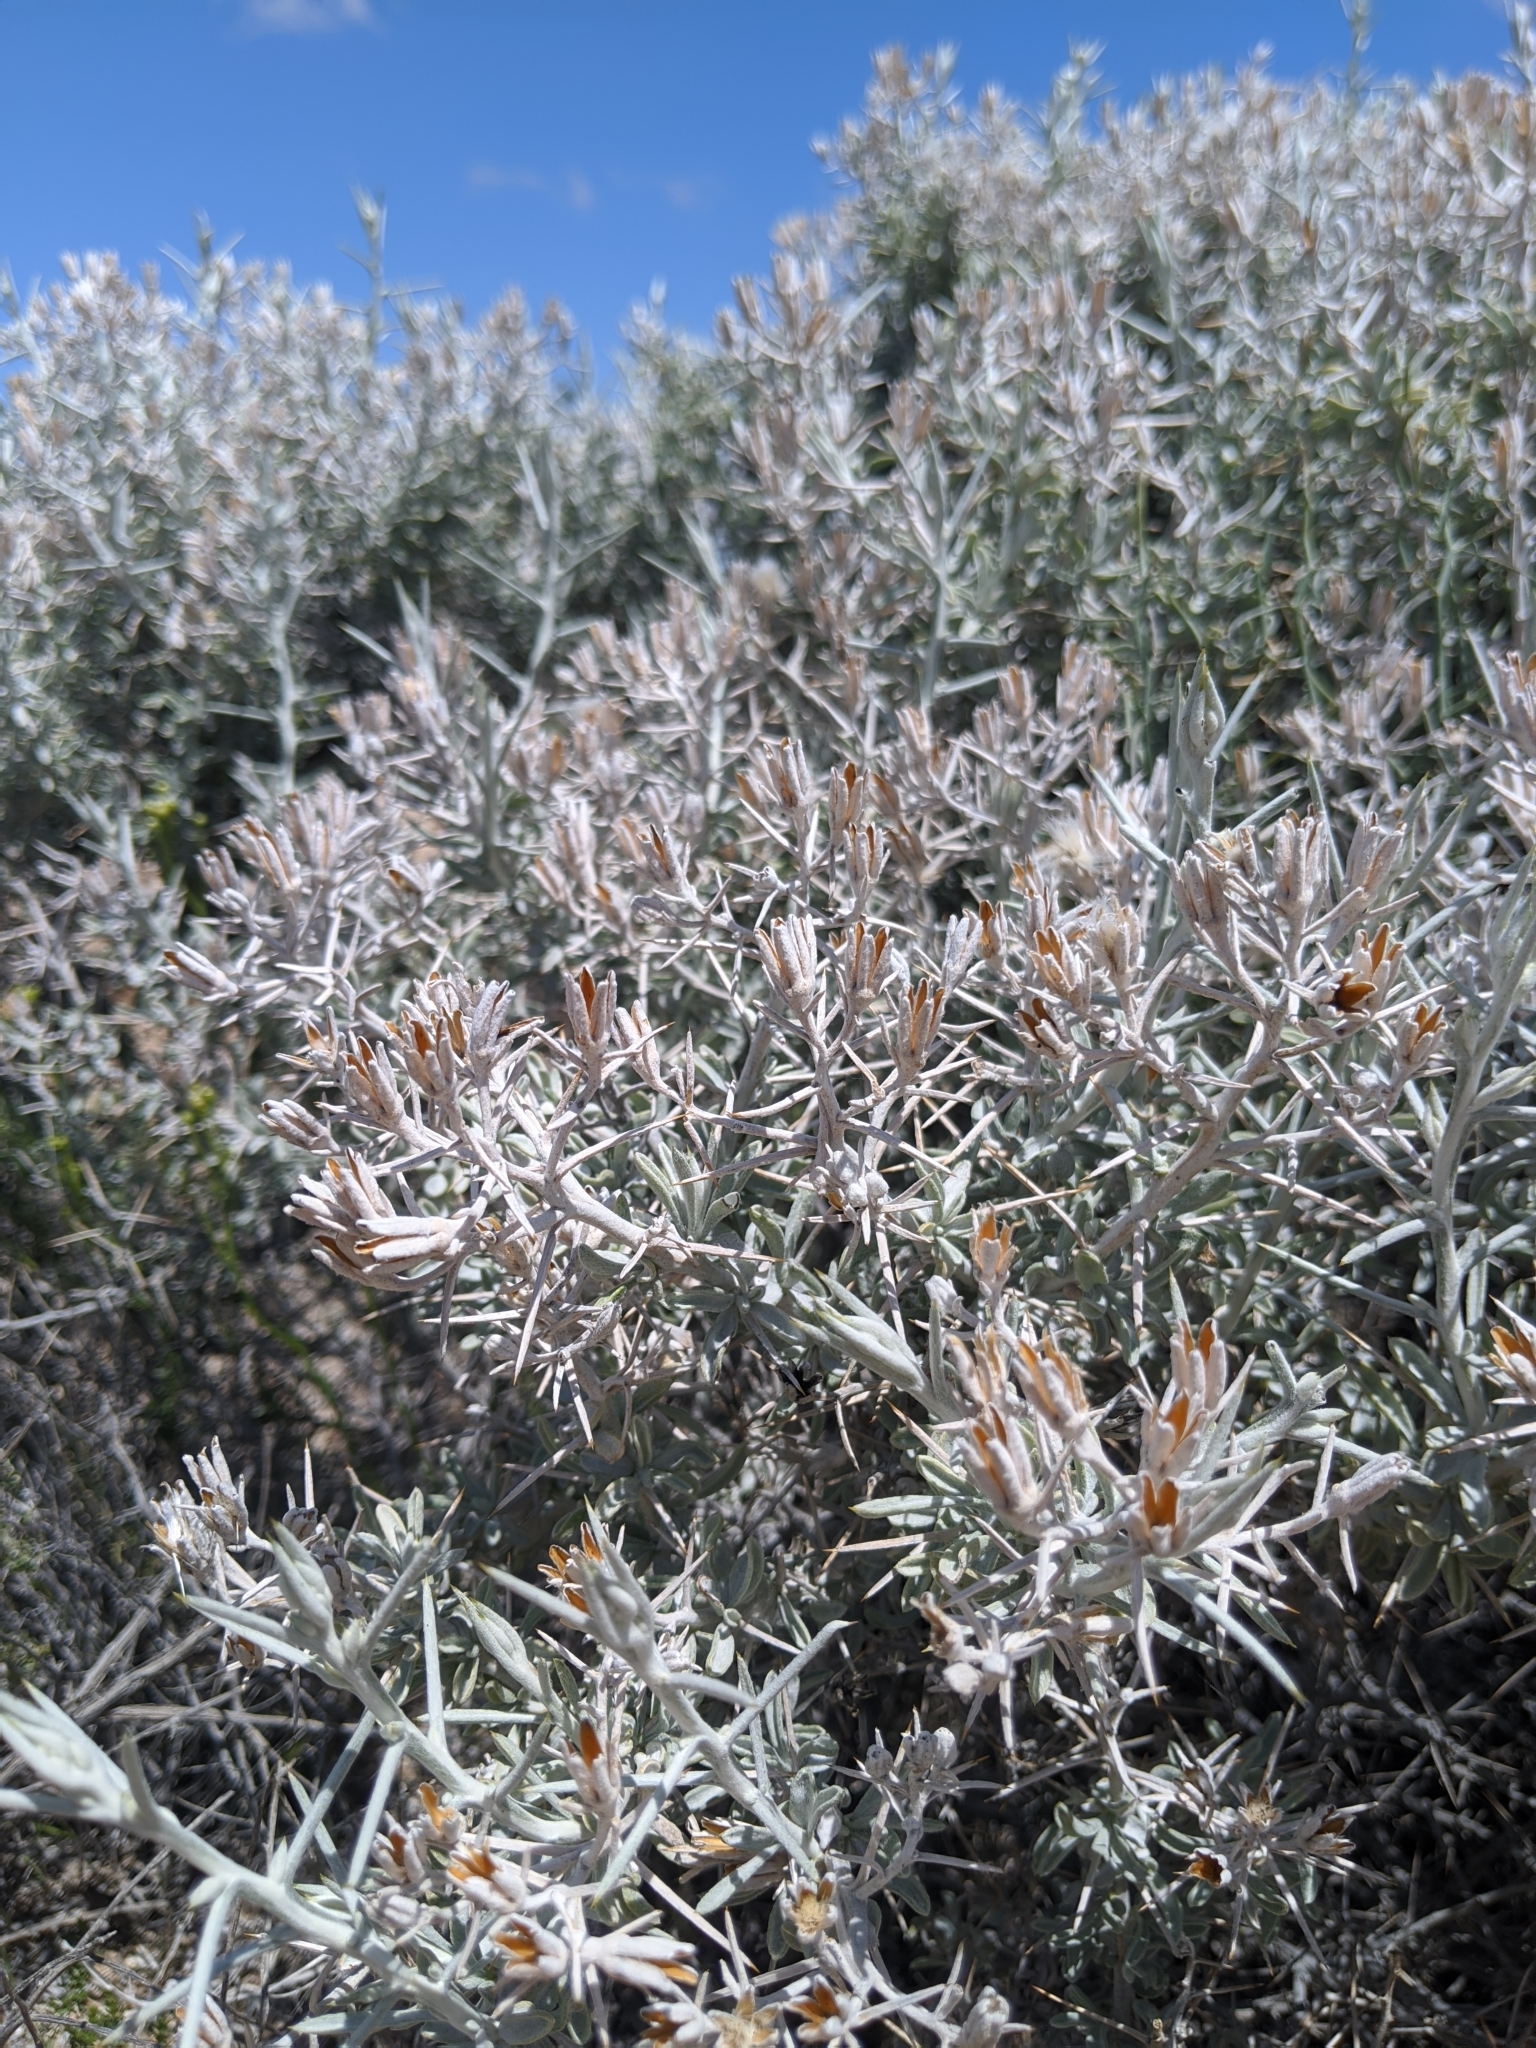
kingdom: Plantae
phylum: Tracheophyta
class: Magnoliopsida
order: Asterales
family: Asteraceae
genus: Tetradymia
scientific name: Tetradymia stenolepis
